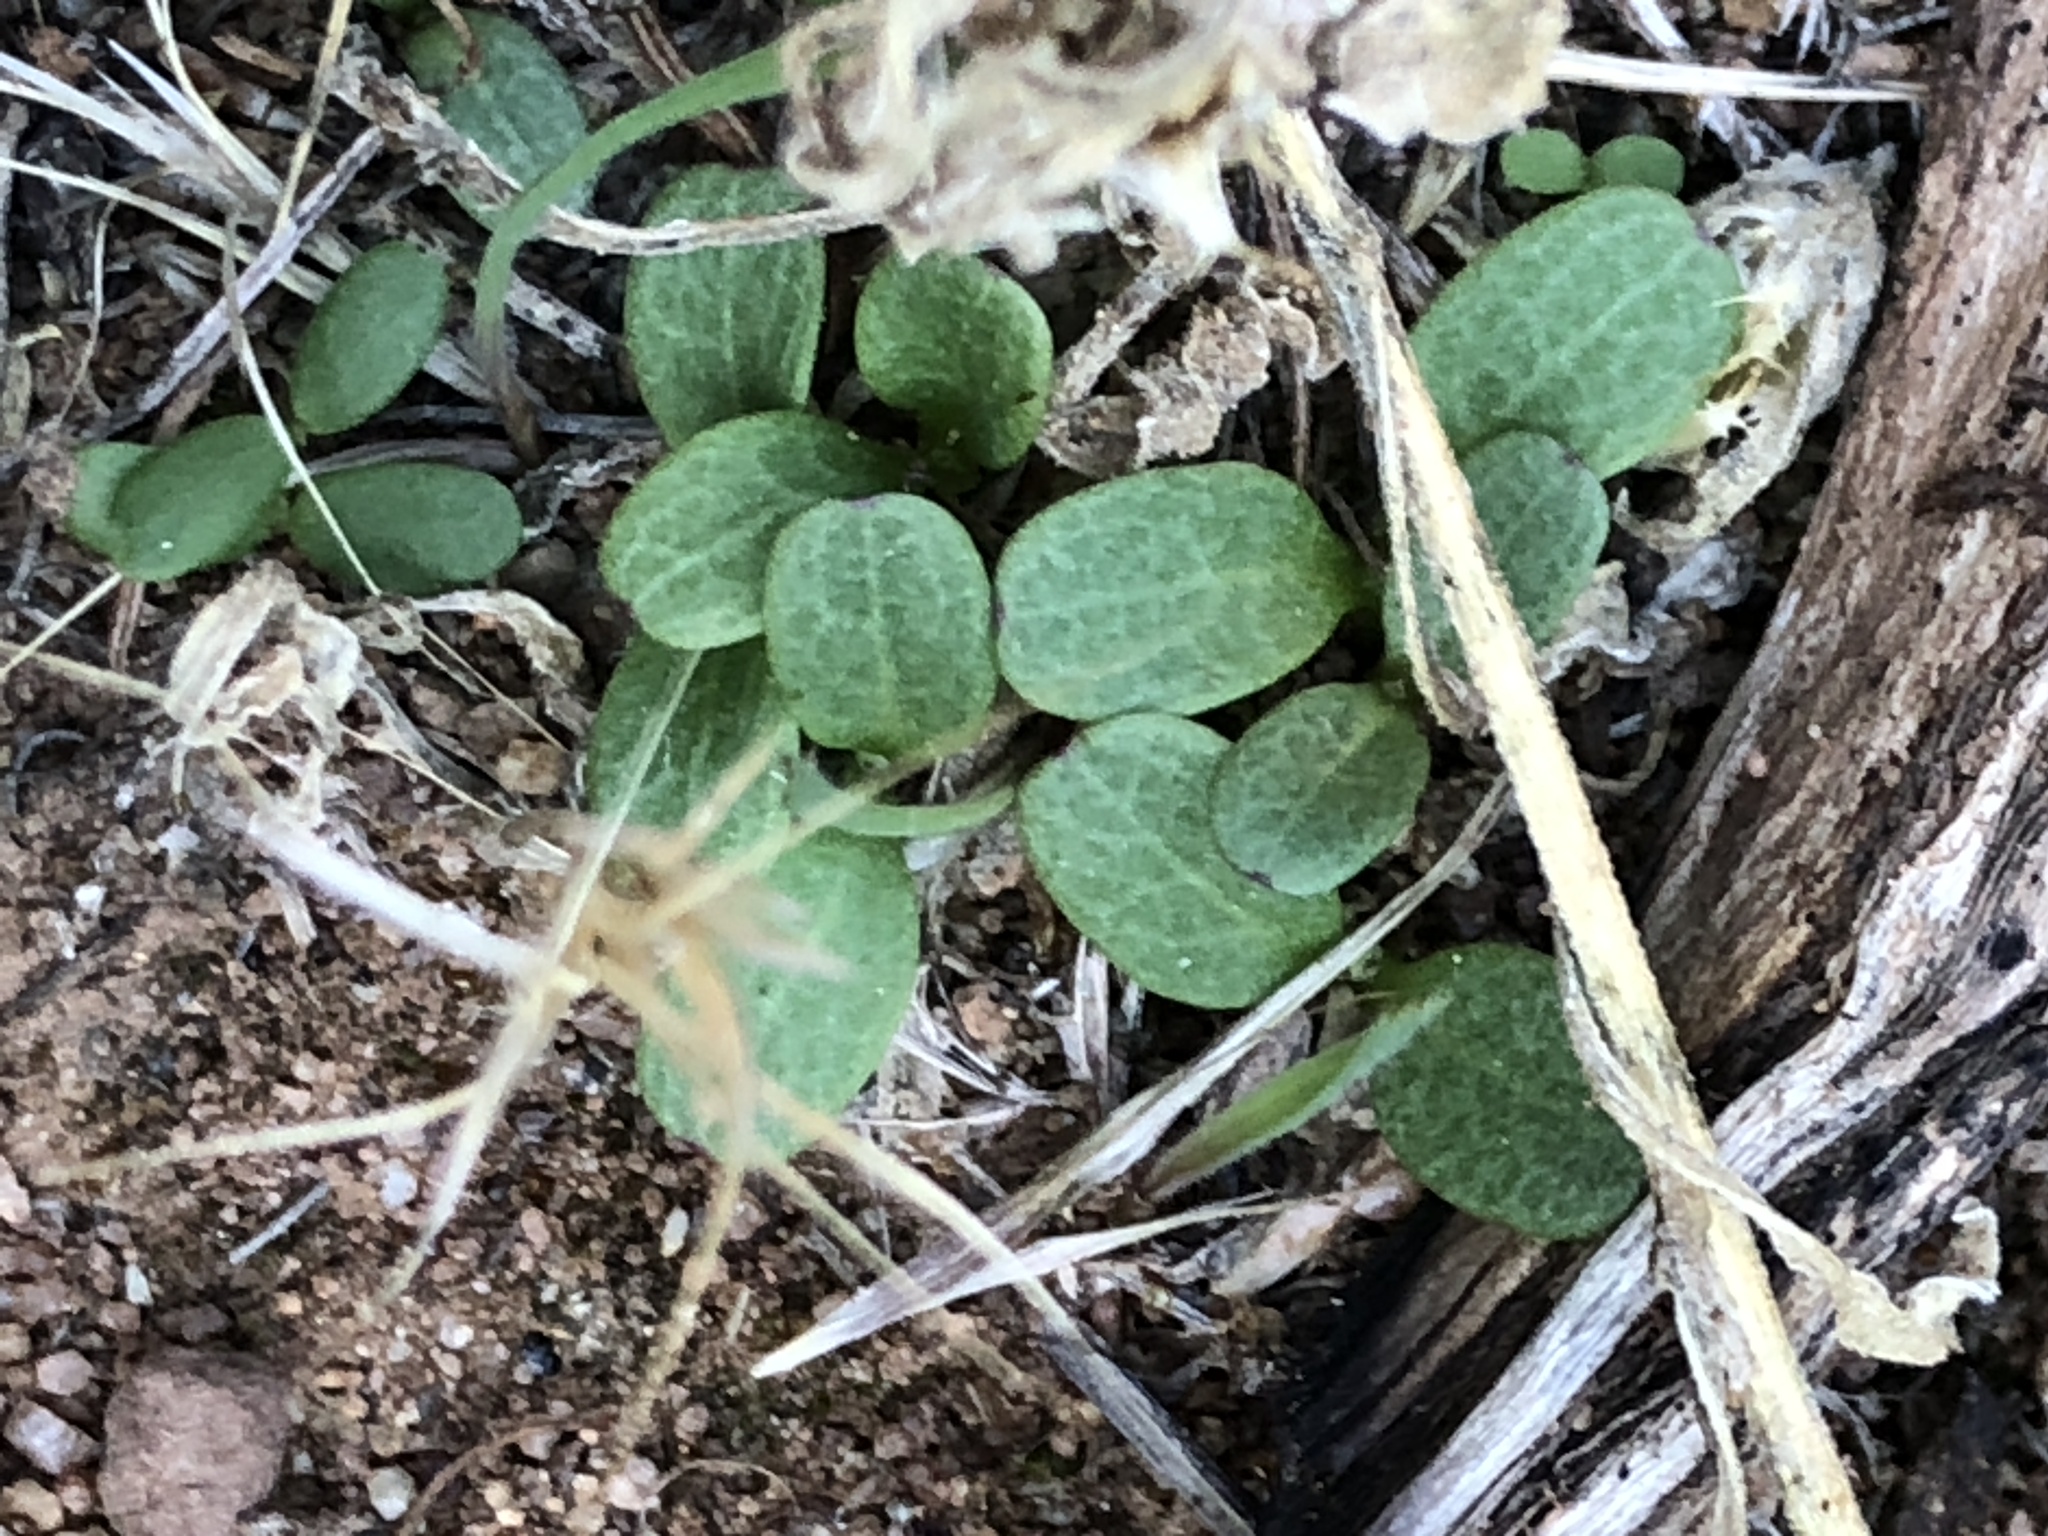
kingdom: Plantae
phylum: Tracheophyta
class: Magnoliopsida
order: Rosales
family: Urticaceae
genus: Parietaria
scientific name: Parietaria hespera
